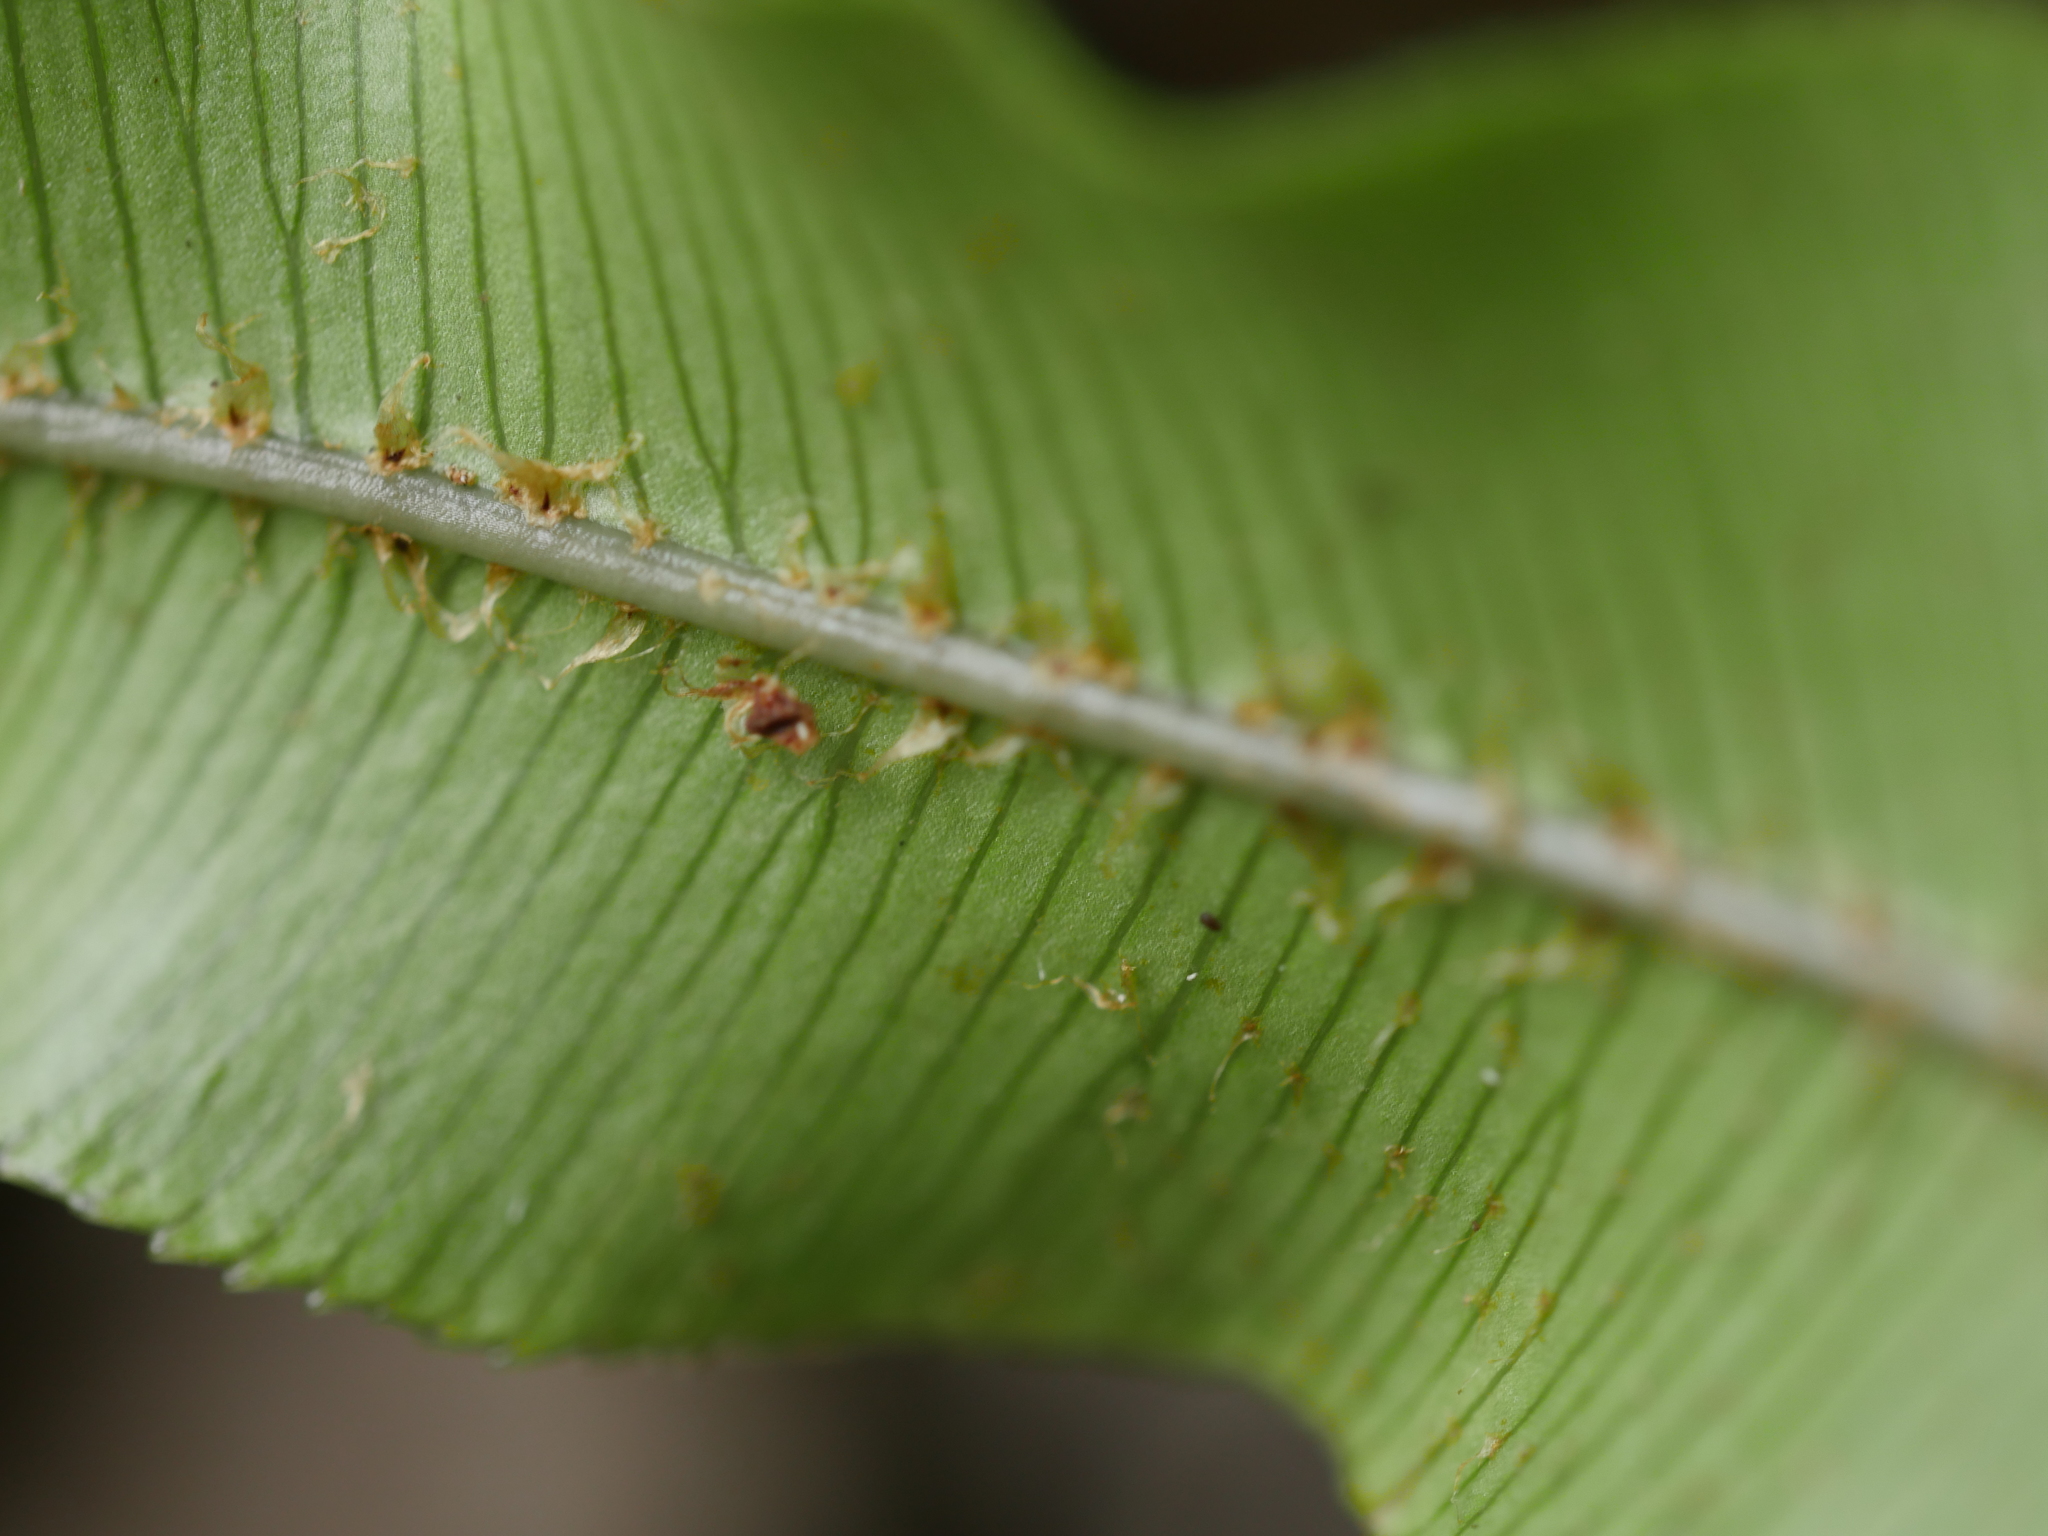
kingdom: Plantae
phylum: Tracheophyta
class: Polypodiopsida
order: Polypodiales
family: Blechnaceae
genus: Parablechnum
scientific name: Parablechnum novae-zelandiae
